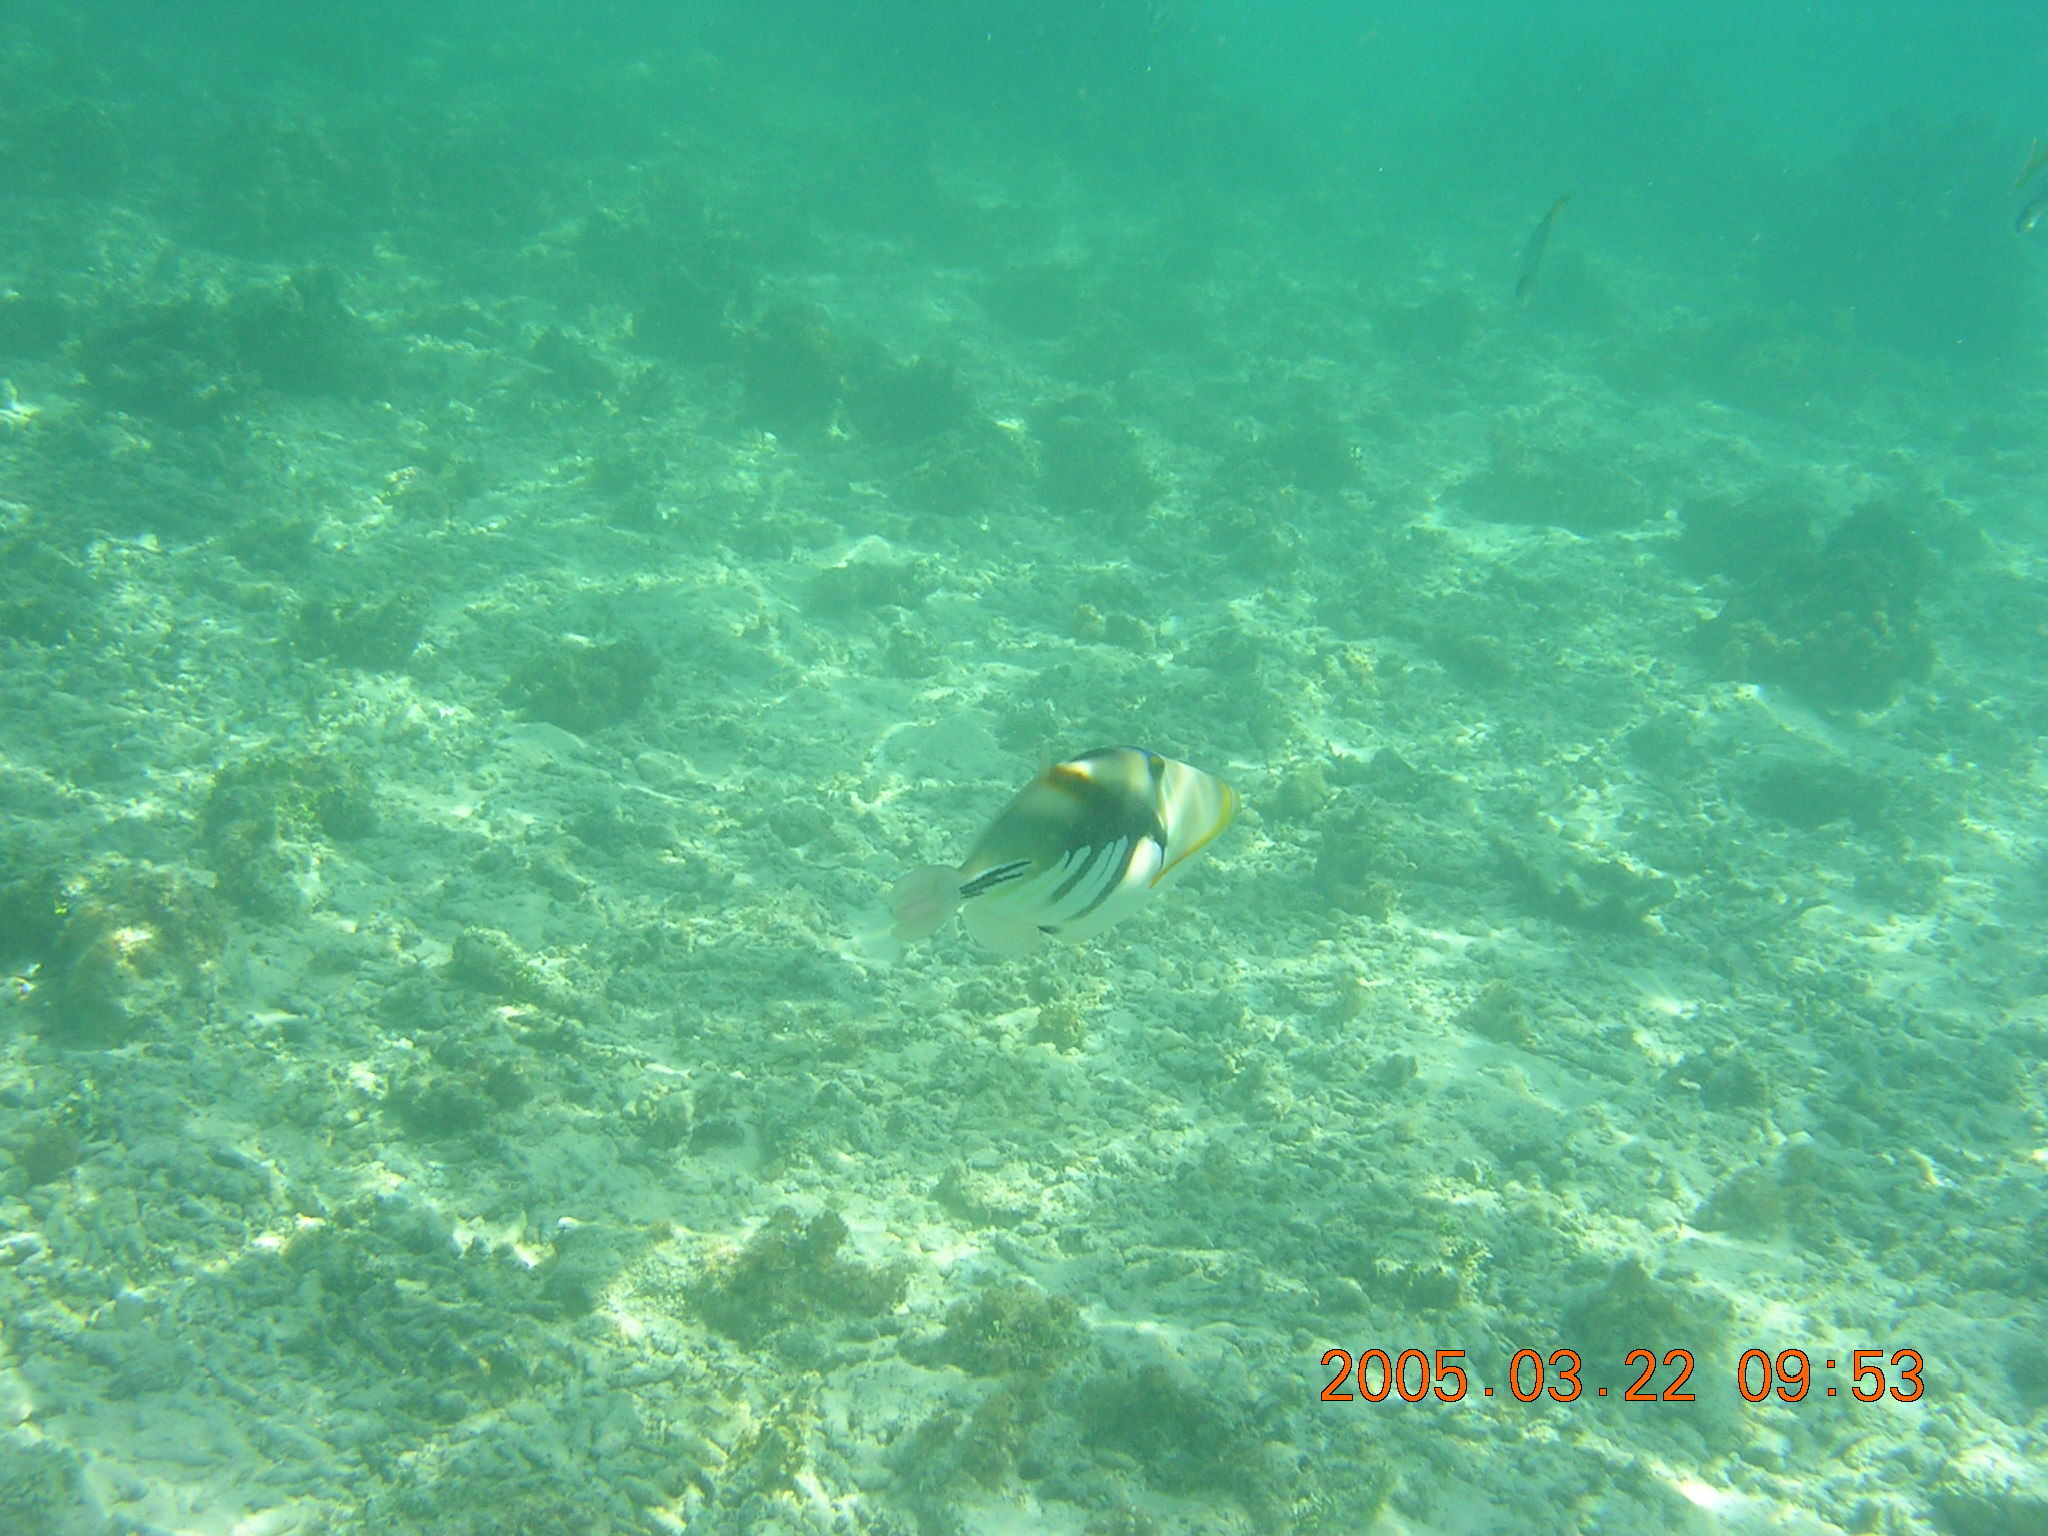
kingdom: Animalia
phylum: Chordata
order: Tetraodontiformes
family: Balistidae
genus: Rhinecanthus
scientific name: Rhinecanthus aculeatus
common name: White-banded triggerfish
